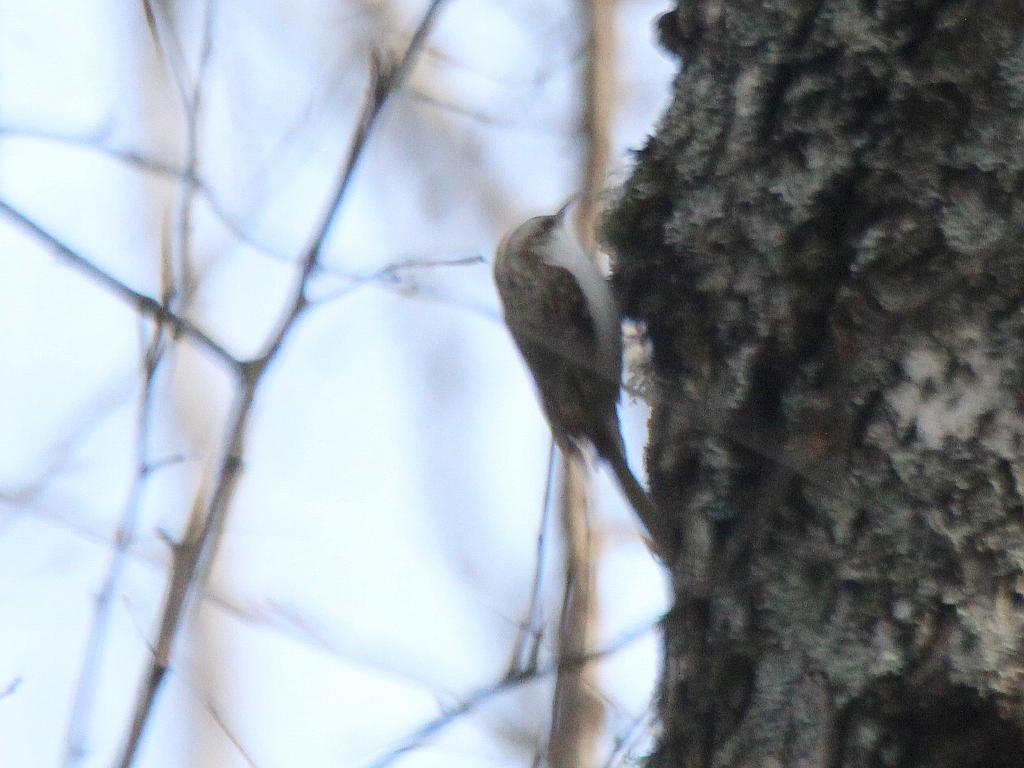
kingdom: Animalia
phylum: Chordata
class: Aves
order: Passeriformes
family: Certhiidae
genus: Certhia
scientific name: Certhia familiaris
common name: Eurasian treecreeper
